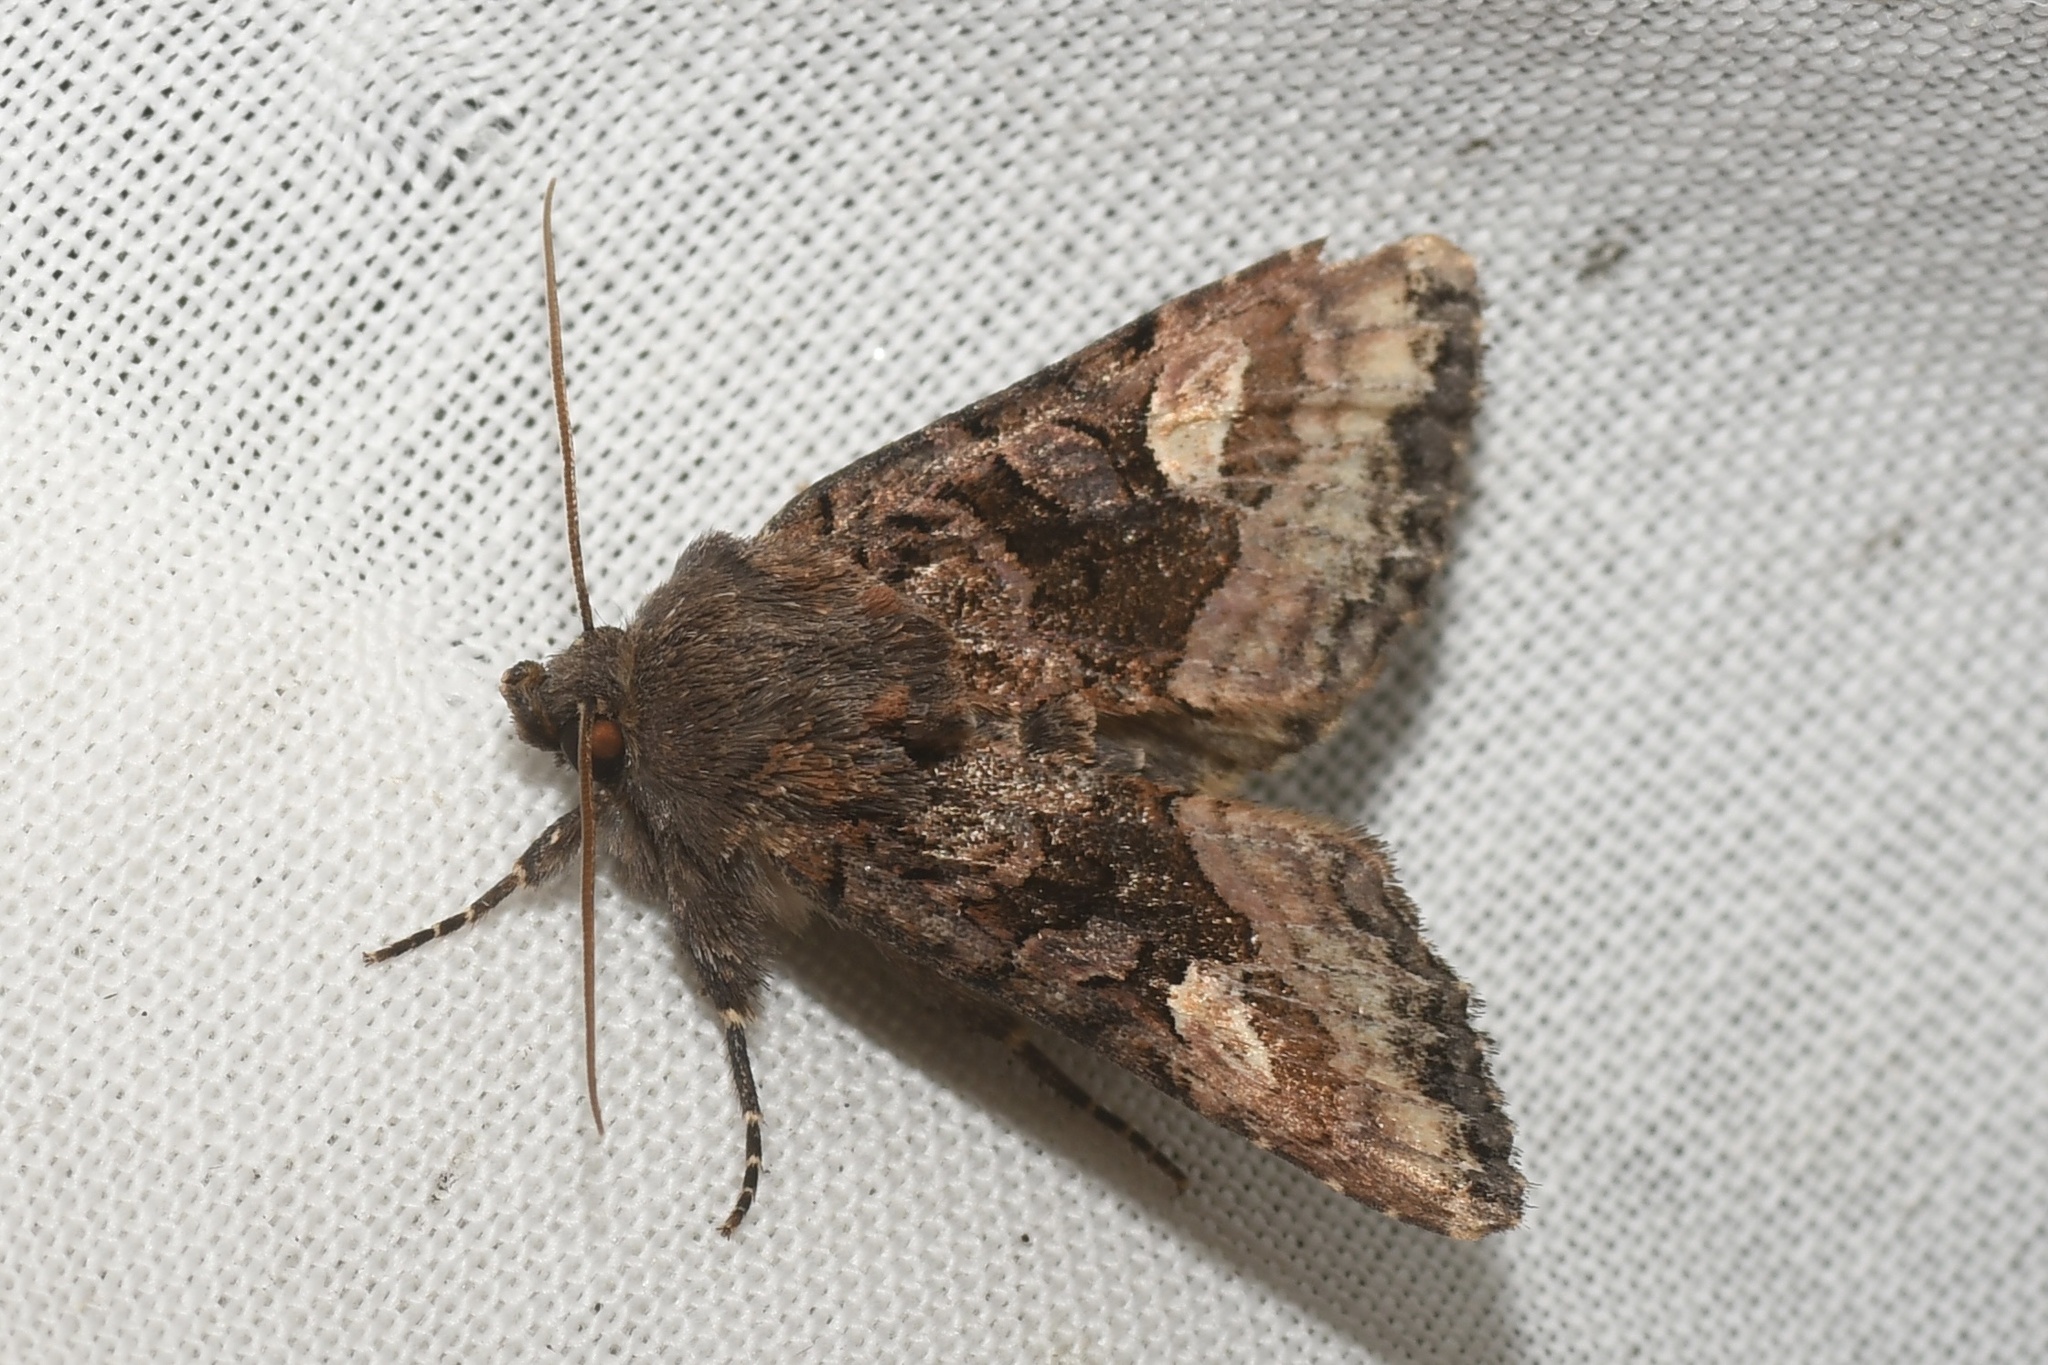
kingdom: Animalia
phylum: Arthropoda
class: Insecta
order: Lepidoptera
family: Noctuidae
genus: Euplexia
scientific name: Euplexia benesimilis
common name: American angle shades
